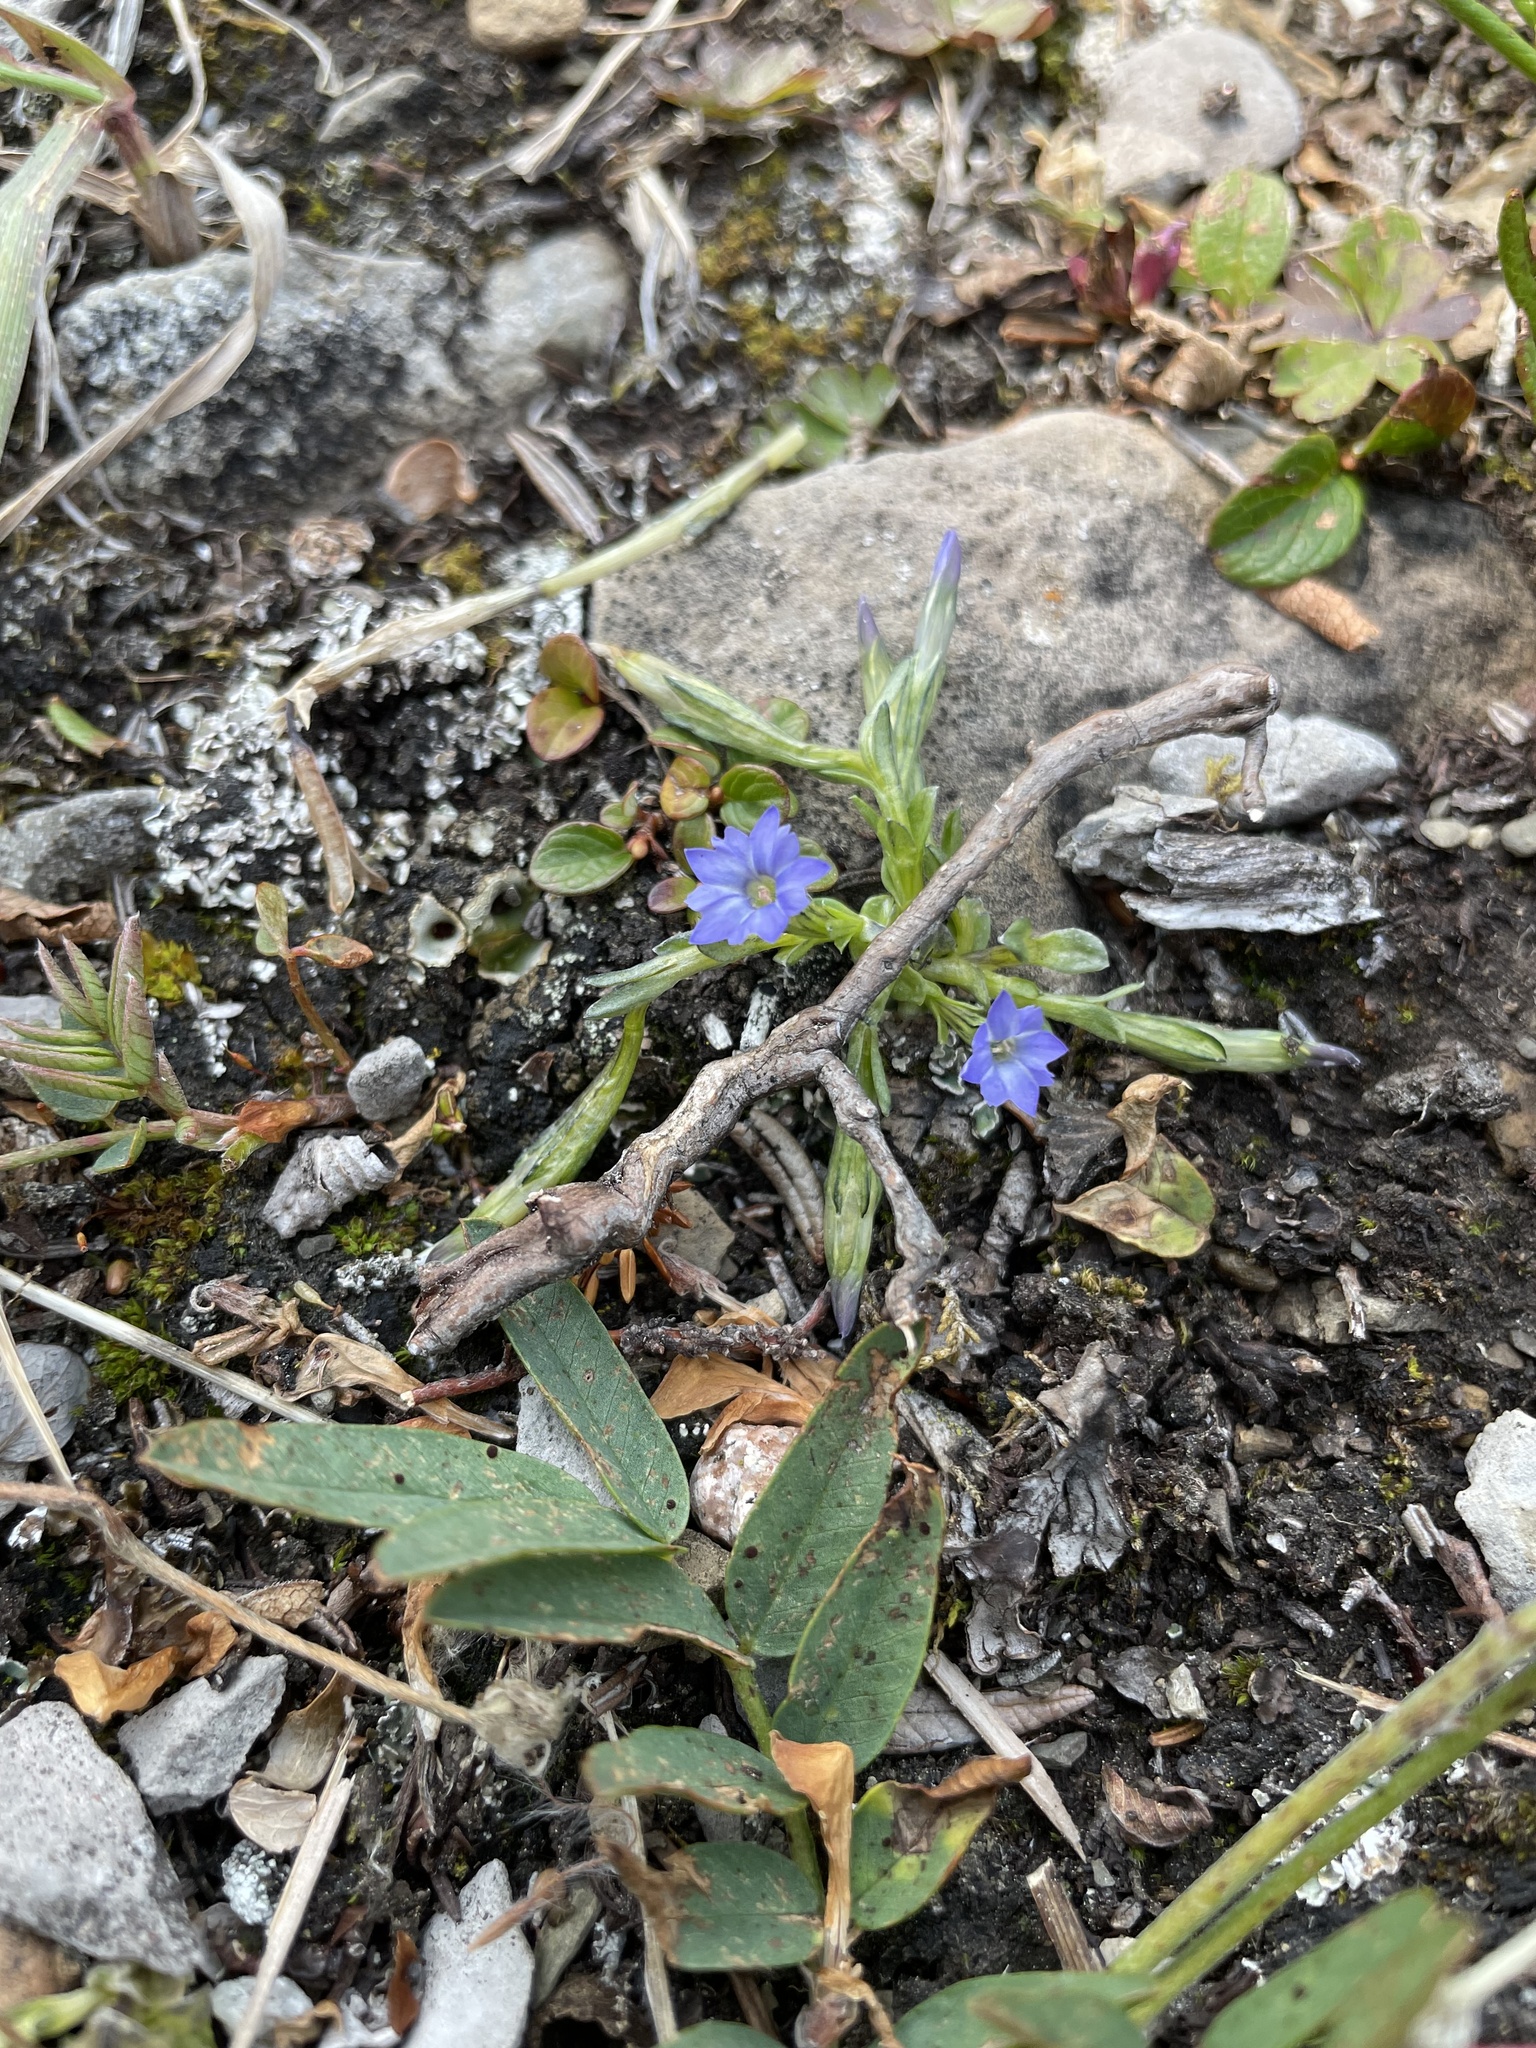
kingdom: Plantae
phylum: Tracheophyta
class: Magnoliopsida
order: Gentianales
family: Gentianaceae
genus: Gentiana
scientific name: Gentiana prostrata
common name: Moss gentian
